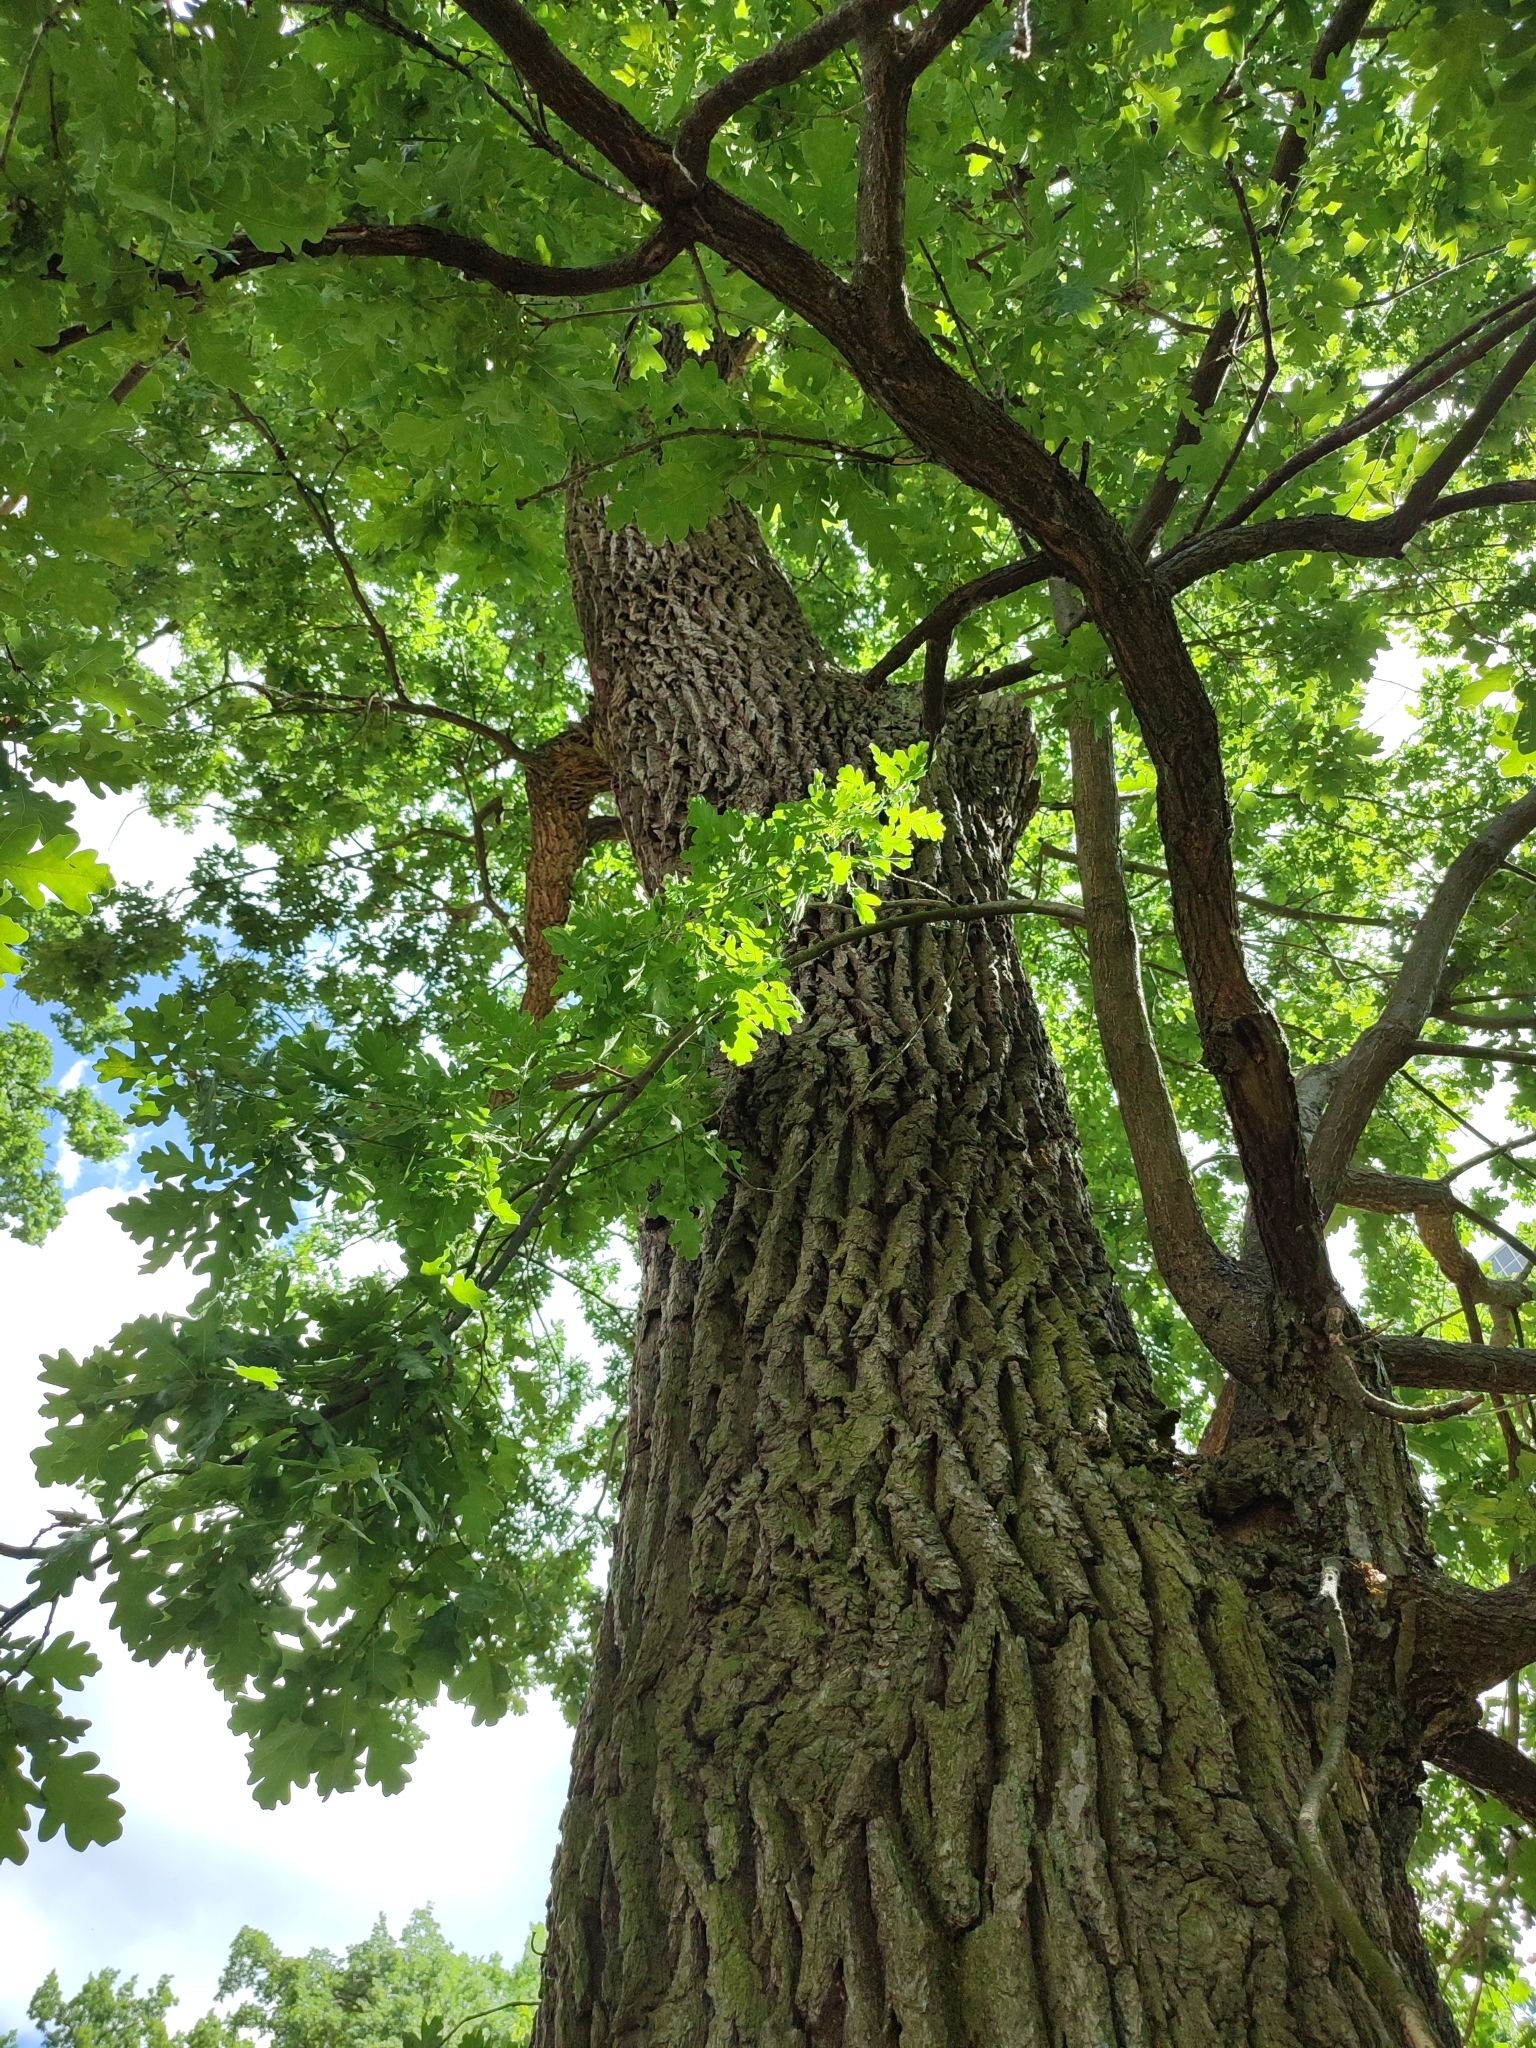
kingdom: Plantae
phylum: Tracheophyta
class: Magnoliopsida
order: Fagales
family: Fagaceae
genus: Quercus
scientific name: Quercus robur
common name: Pedunculate oak
